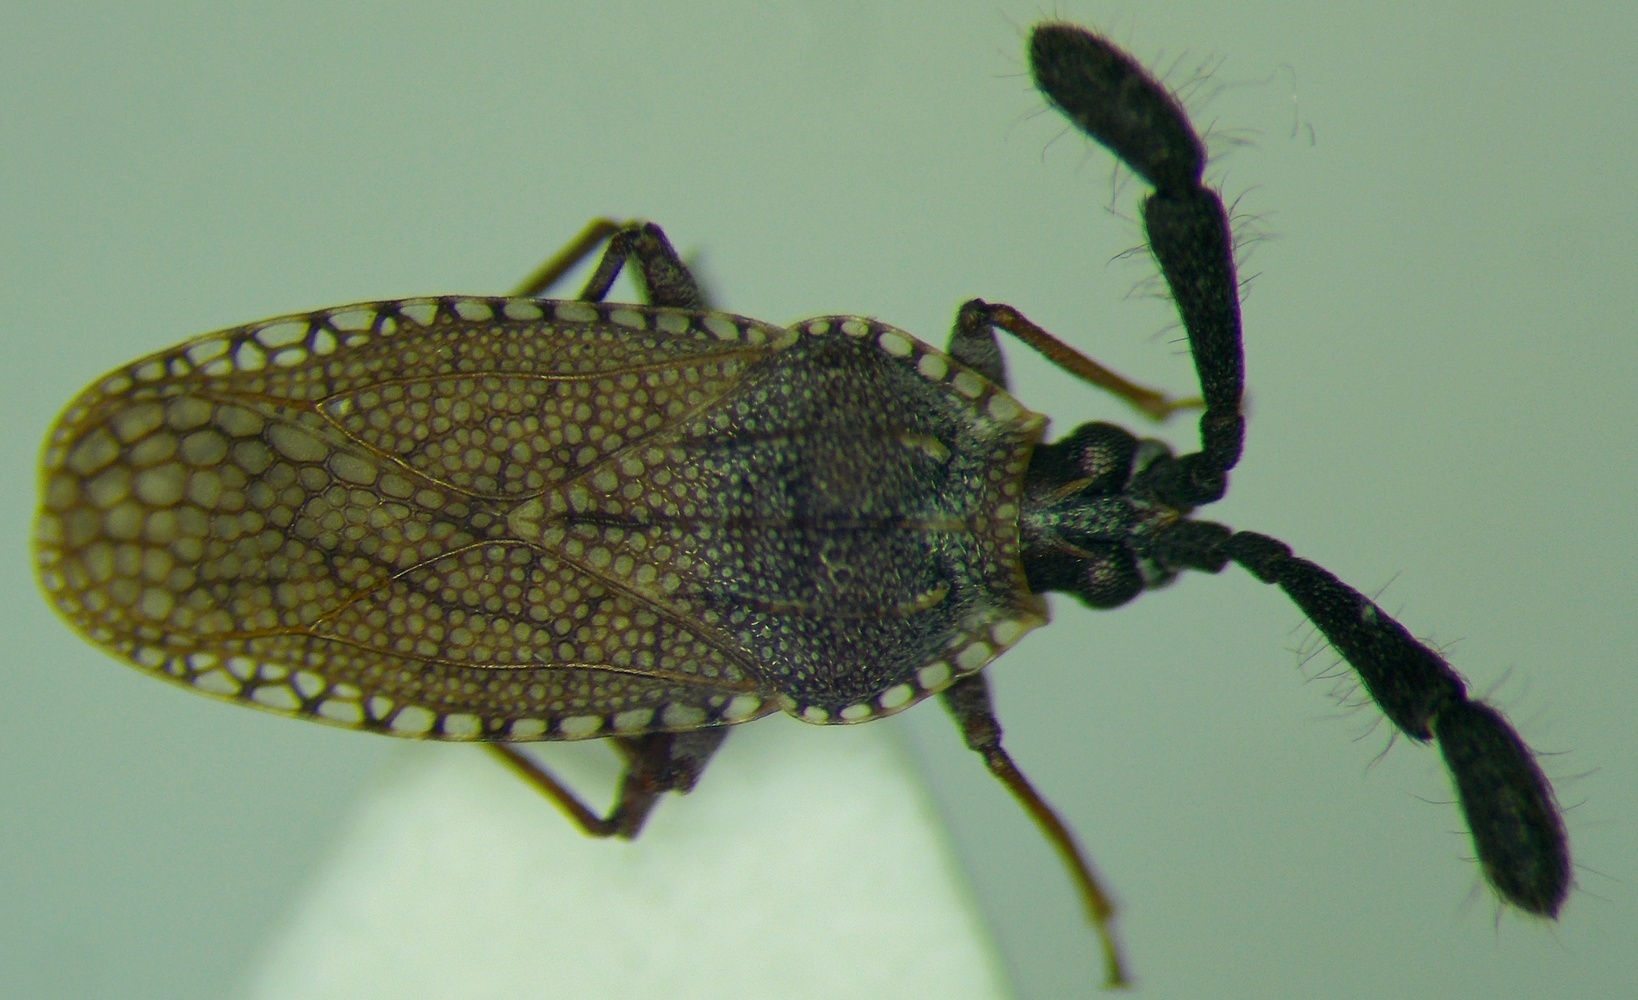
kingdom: Animalia
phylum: Arthropoda
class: Insecta
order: Hemiptera
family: Tingidae
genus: Copium
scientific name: Copium clavicorne
